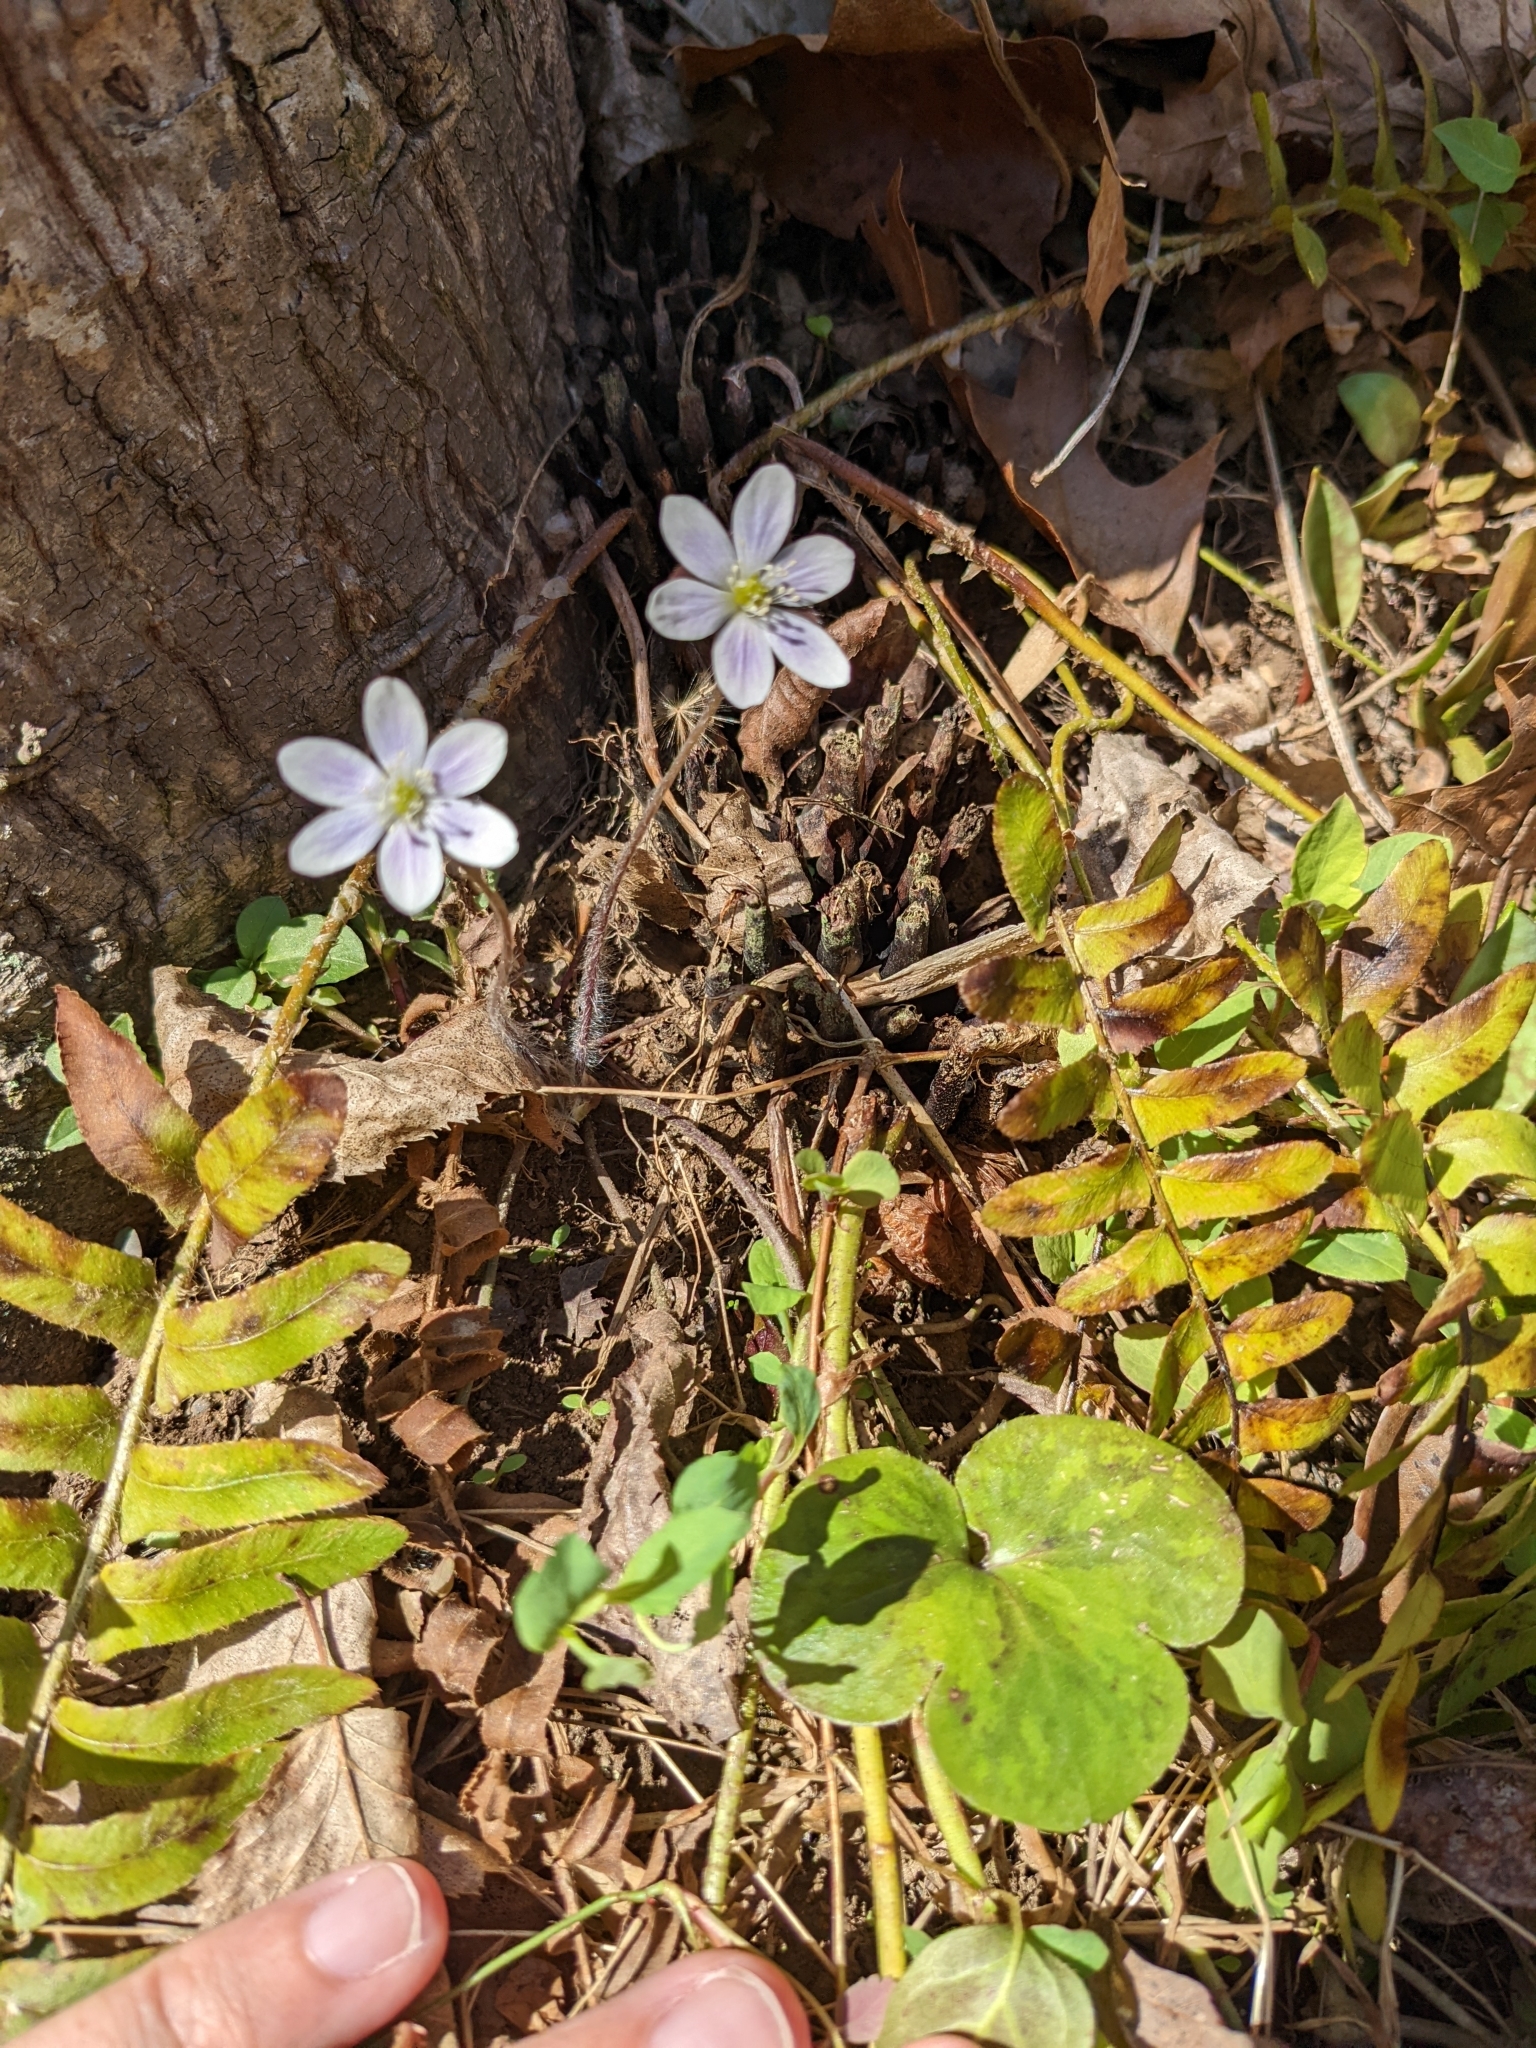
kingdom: Plantae
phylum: Tracheophyta
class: Magnoliopsida
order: Ranunculales
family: Ranunculaceae
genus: Hepatica
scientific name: Hepatica americana
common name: American hepatica
